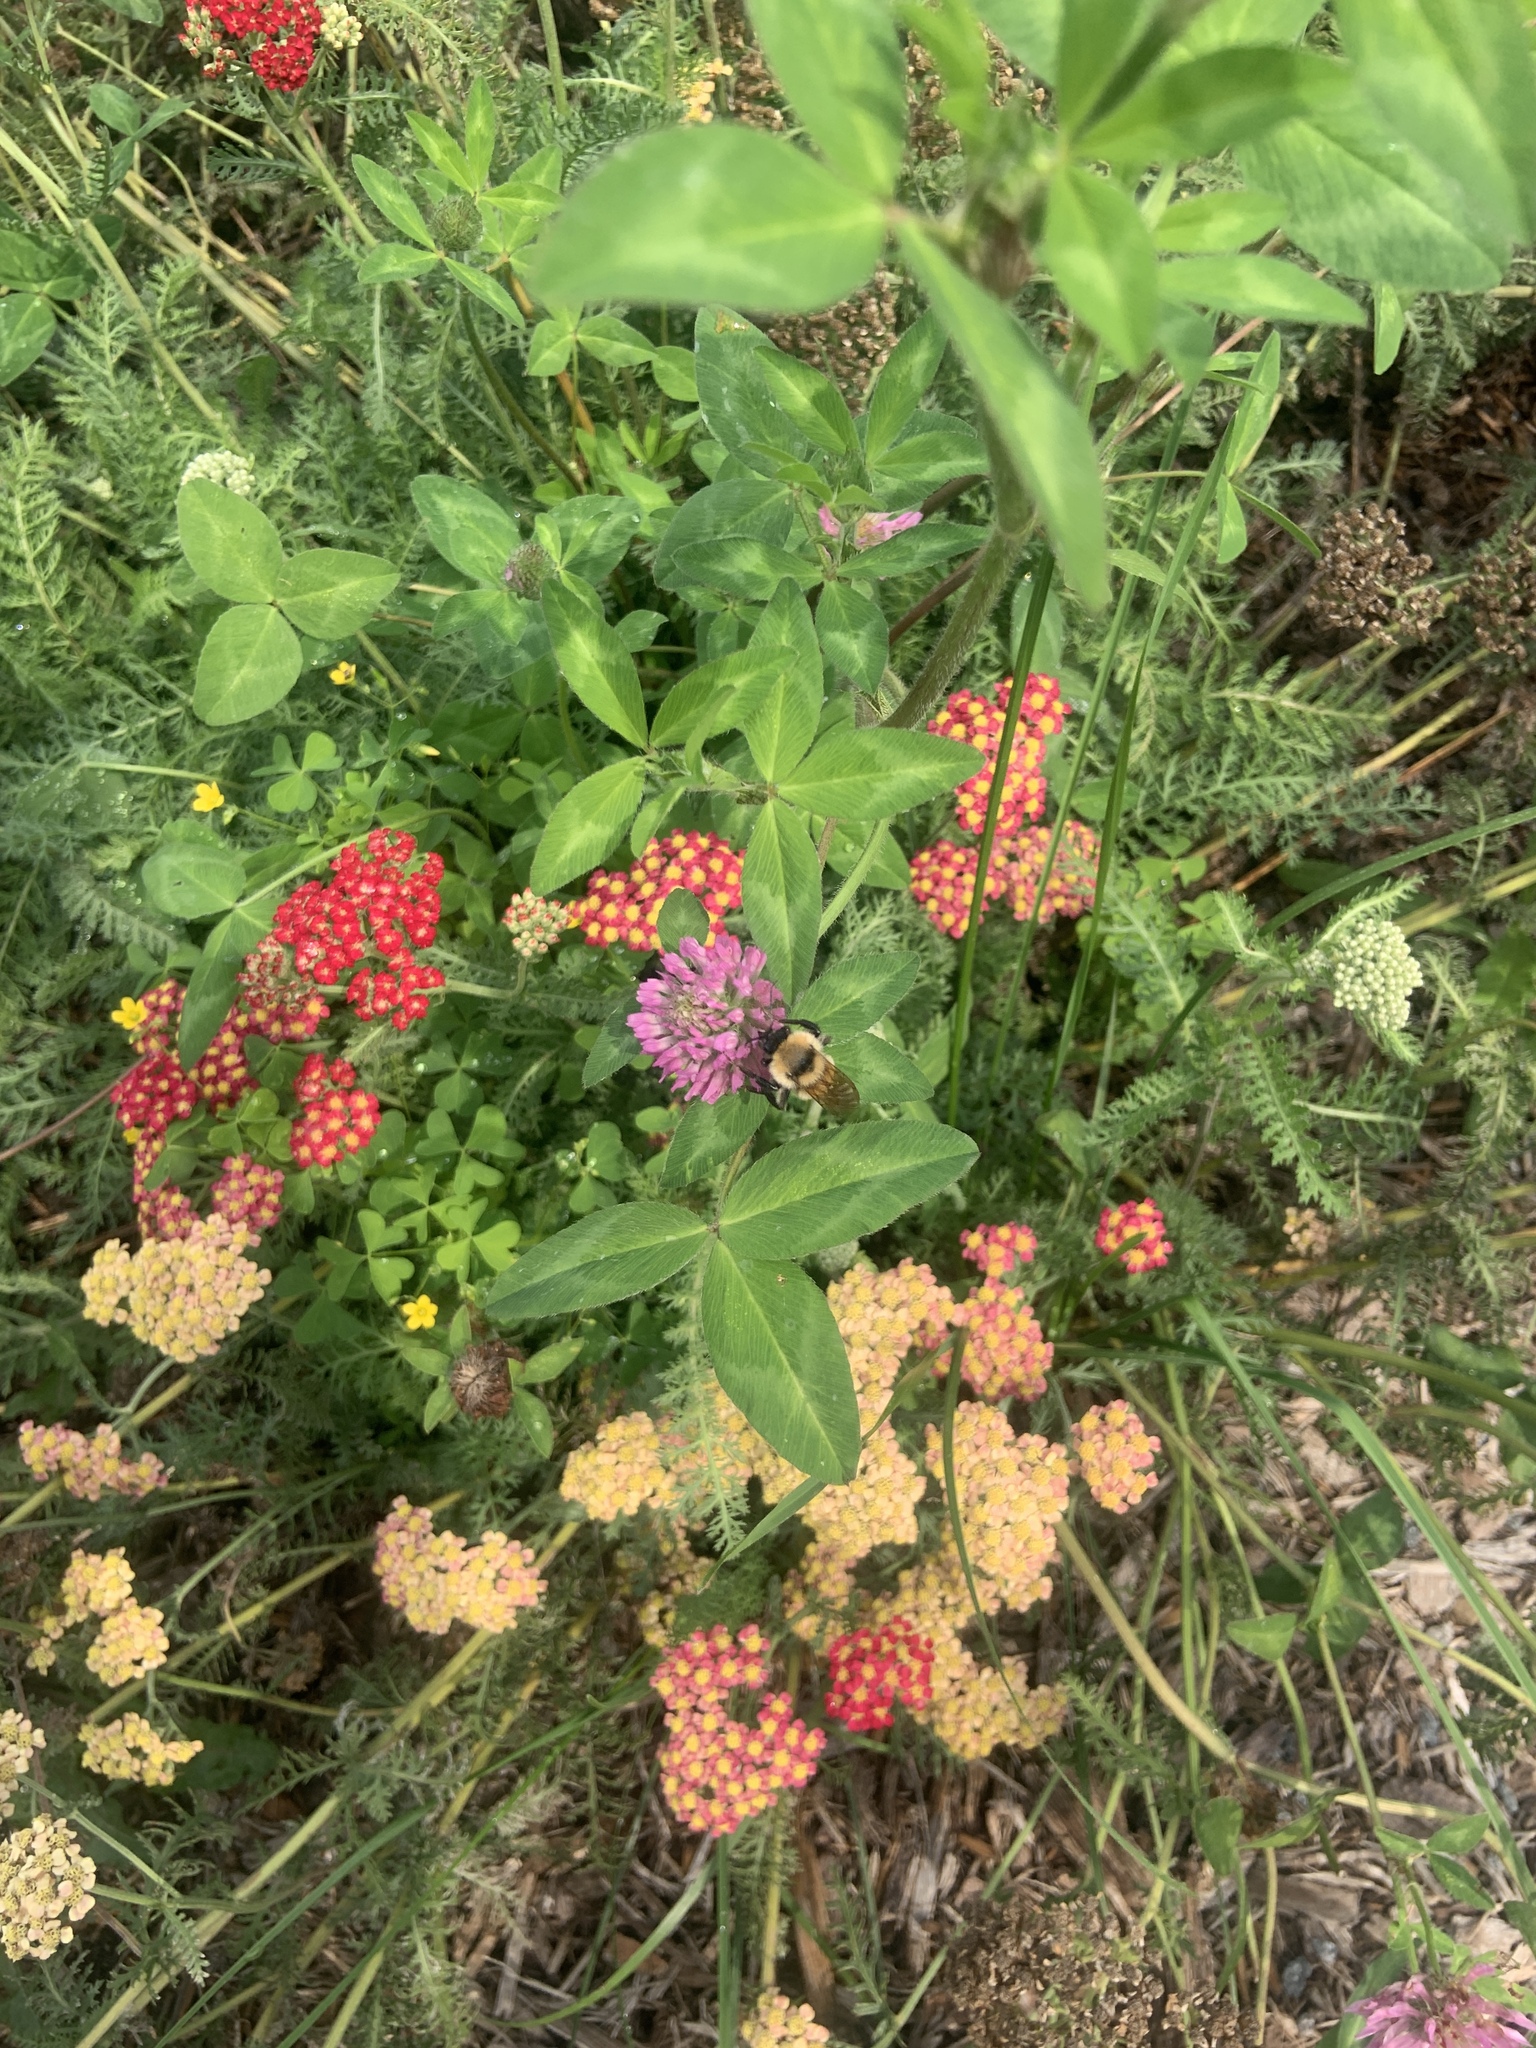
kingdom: Animalia
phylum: Arthropoda
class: Insecta
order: Hymenoptera
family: Apidae
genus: Bombus
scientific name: Bombus fervidus
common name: Yellow bumble bee
